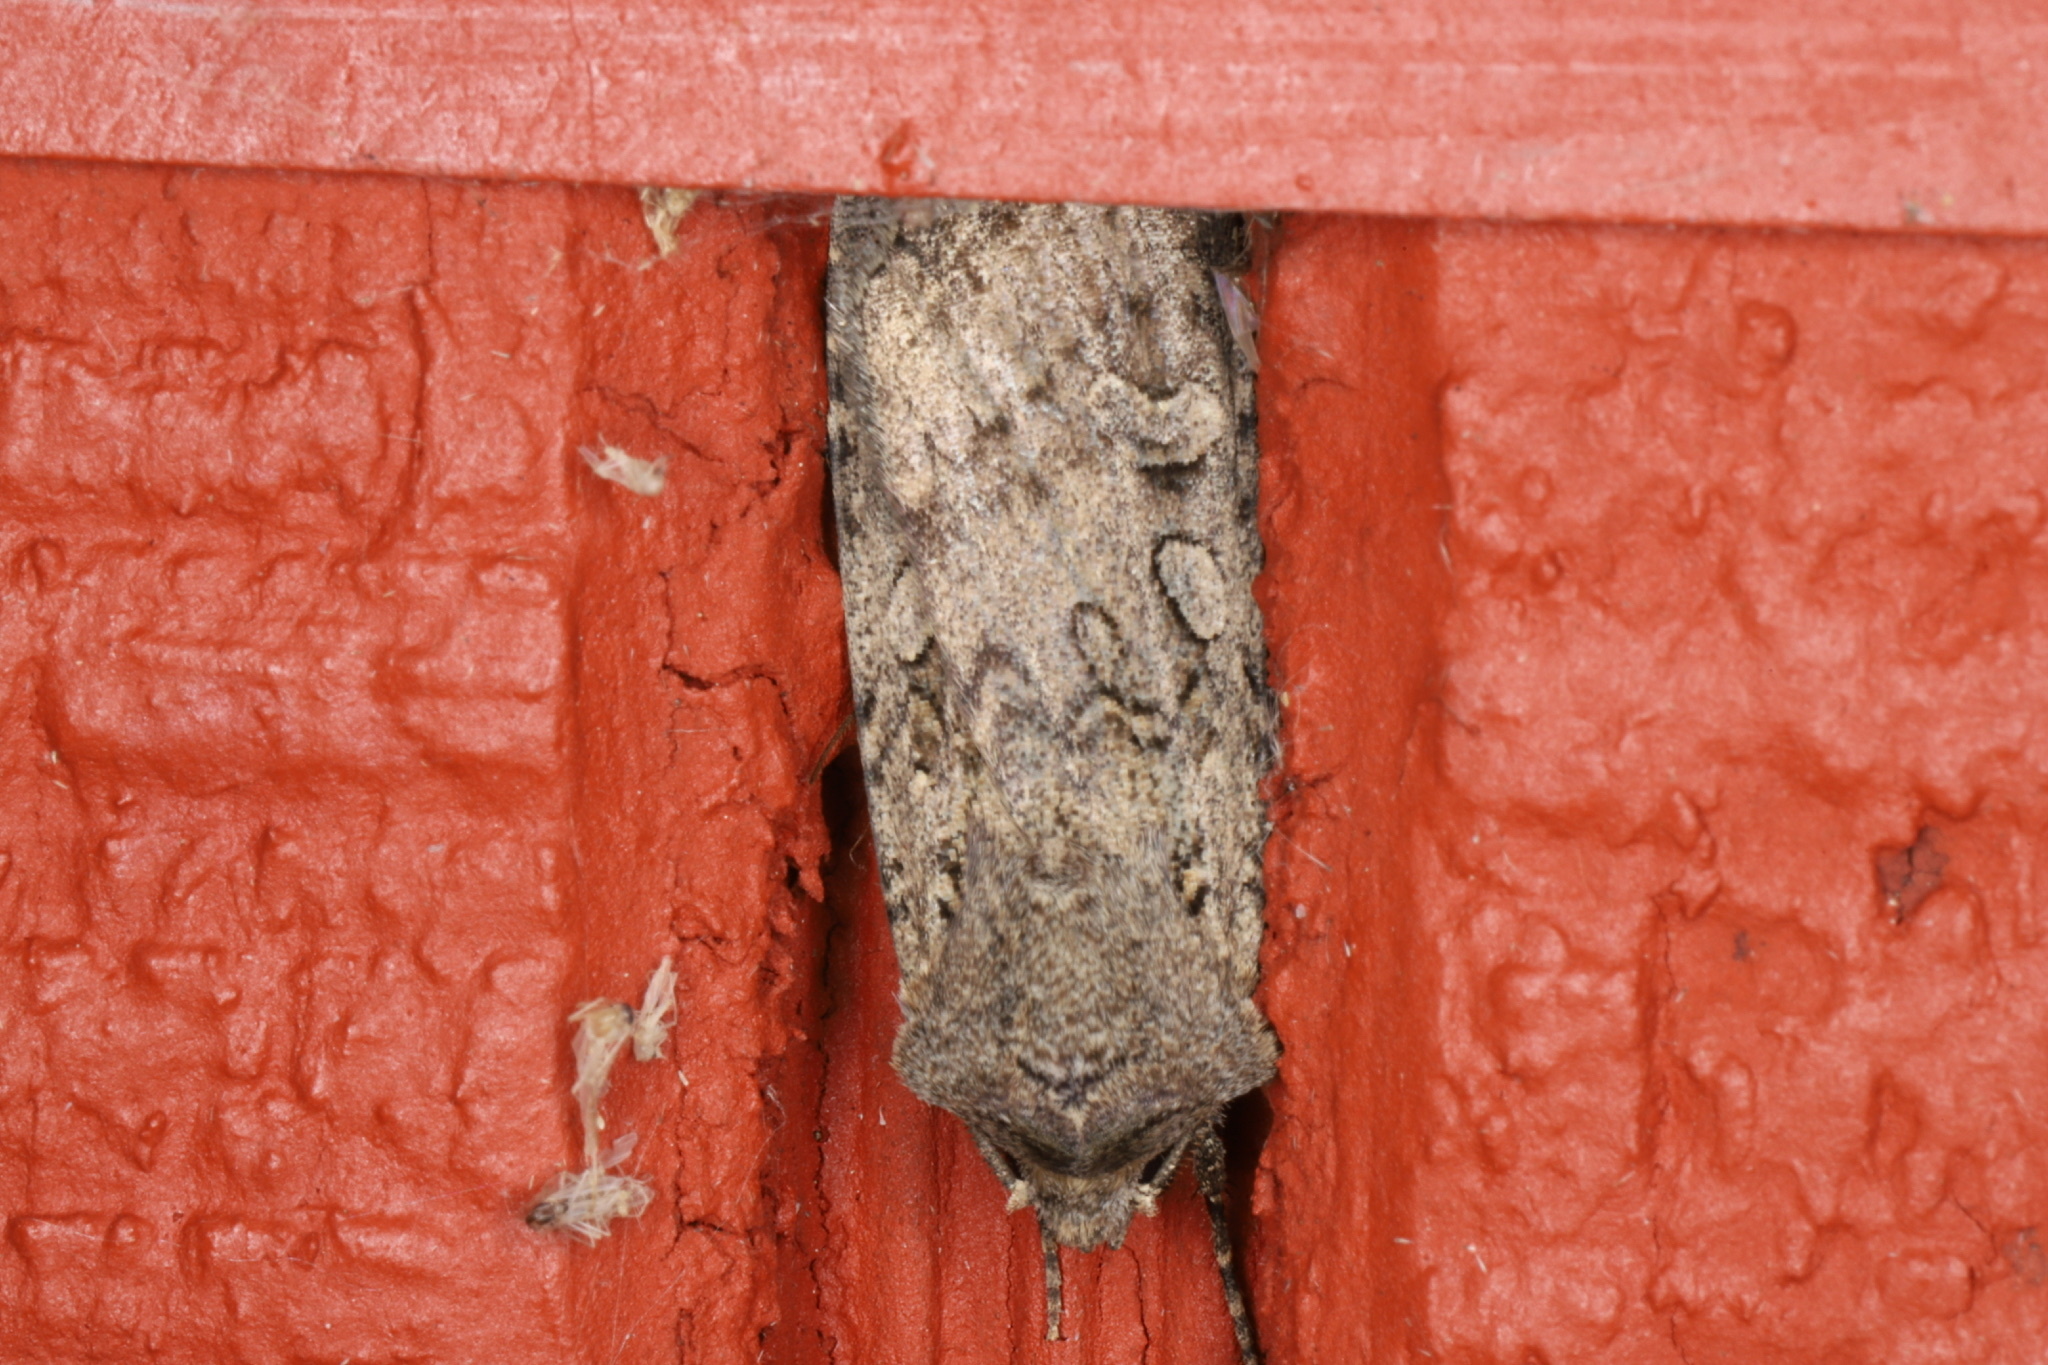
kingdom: Animalia
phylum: Arthropoda
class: Insecta
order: Lepidoptera
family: Noctuidae
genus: Euxoa
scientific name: Euxoa messoria
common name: Darksided cutworm
